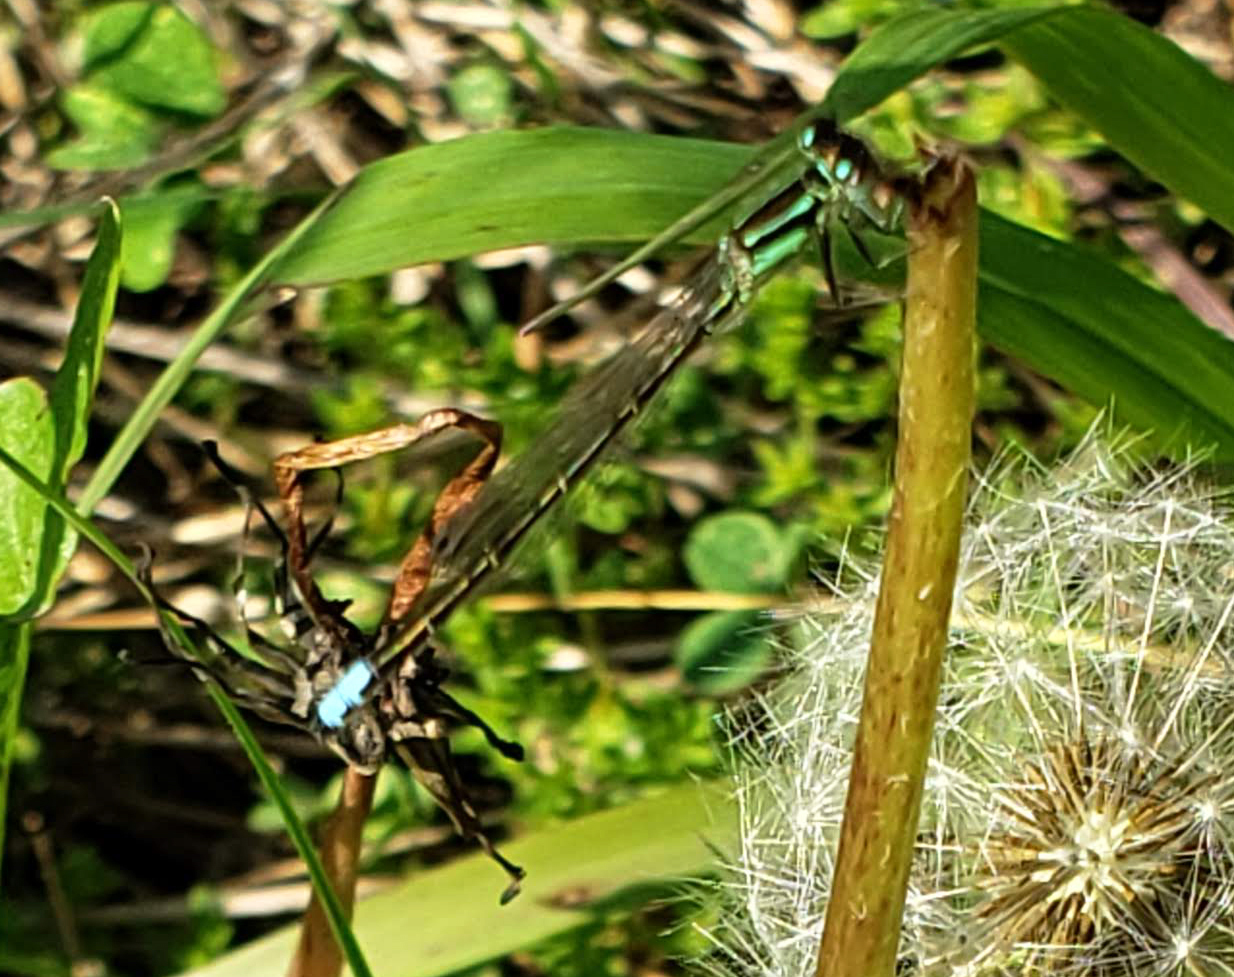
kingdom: Animalia
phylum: Arthropoda
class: Insecta
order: Odonata
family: Coenagrionidae
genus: Ischnura
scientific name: Ischnura verticalis
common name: Eastern forktail
